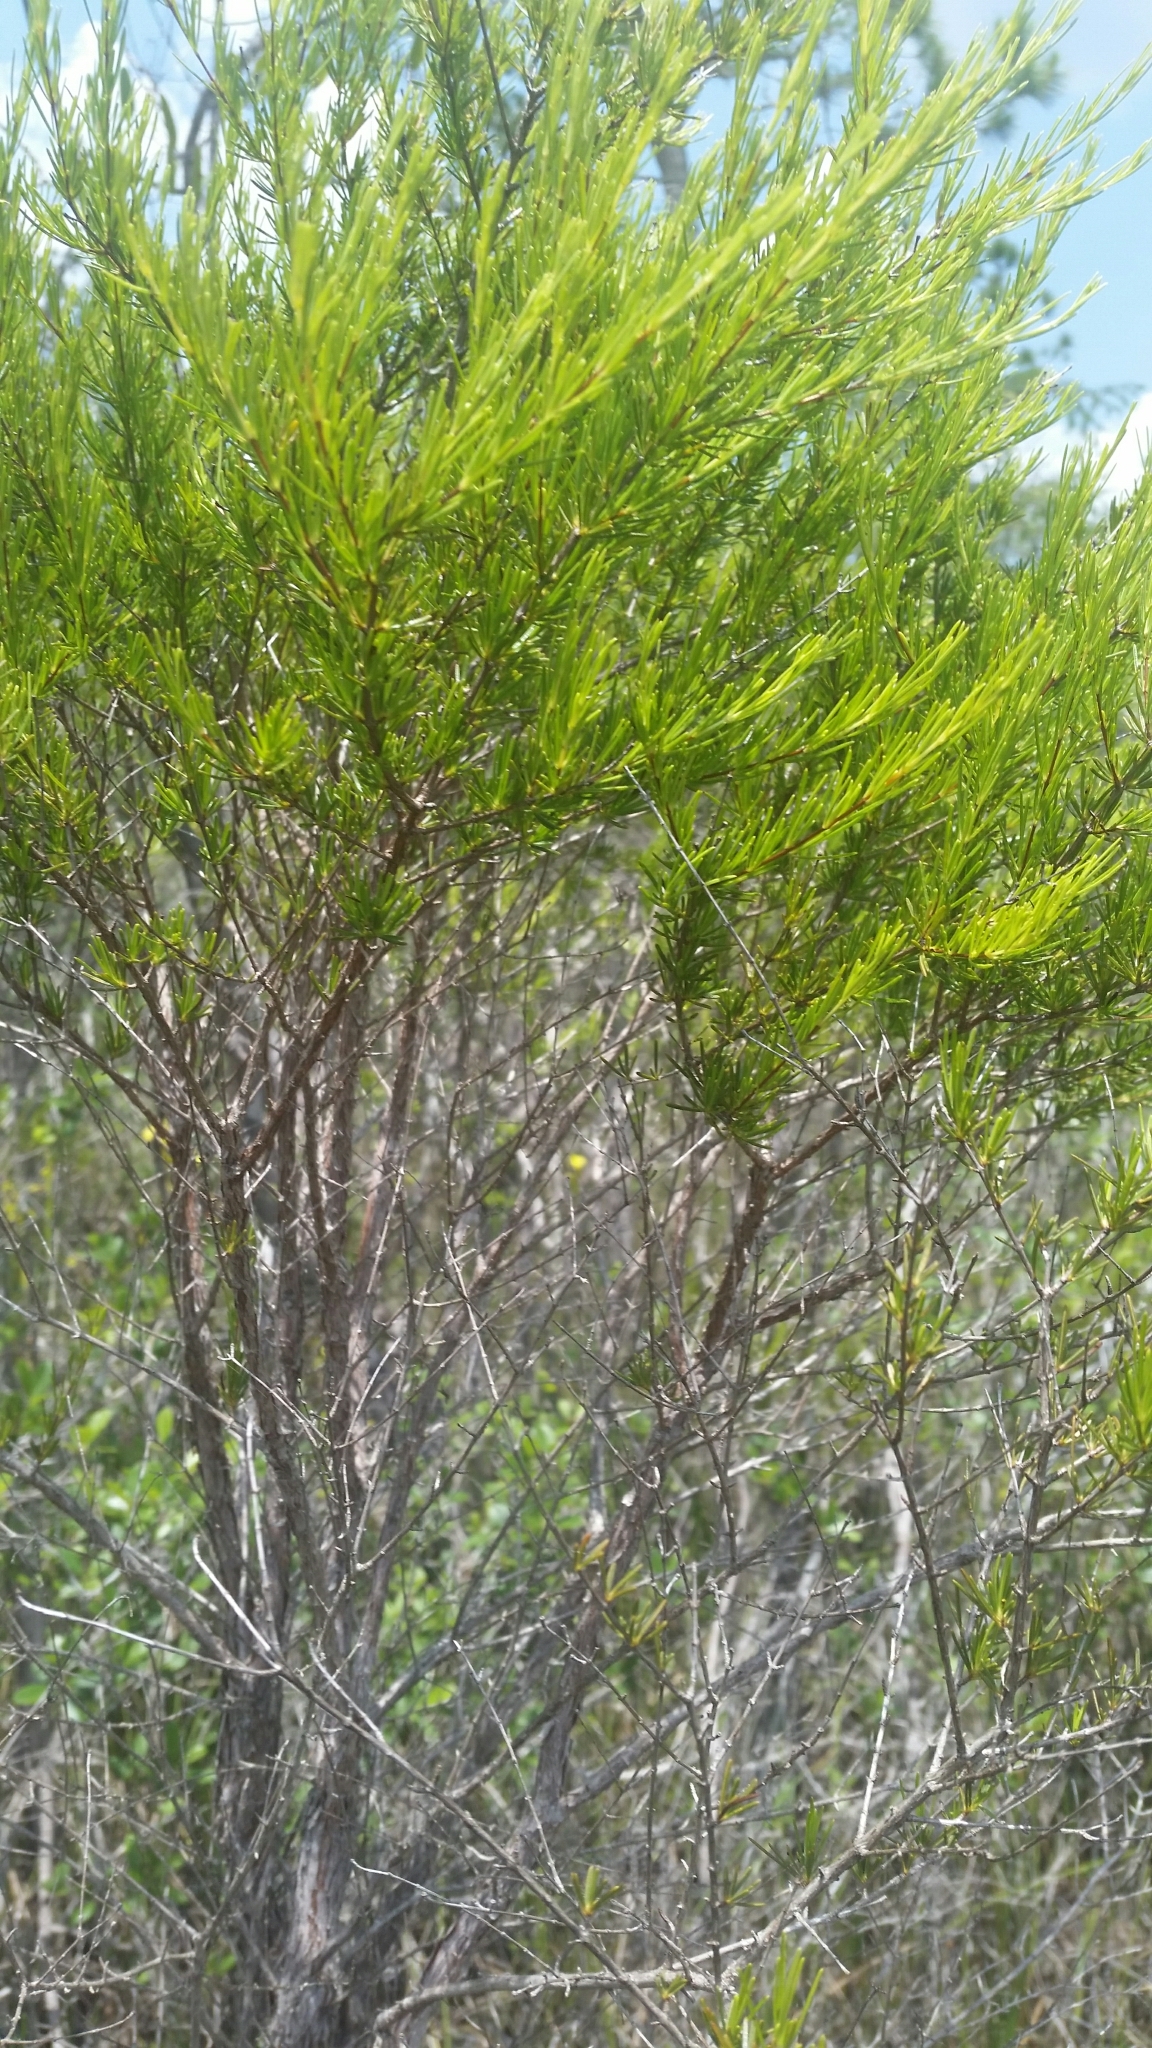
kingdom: Plantae
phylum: Tracheophyta
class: Magnoliopsida
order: Malpighiales
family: Hypericaceae
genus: Hypericum
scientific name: Hypericum chapmanii
